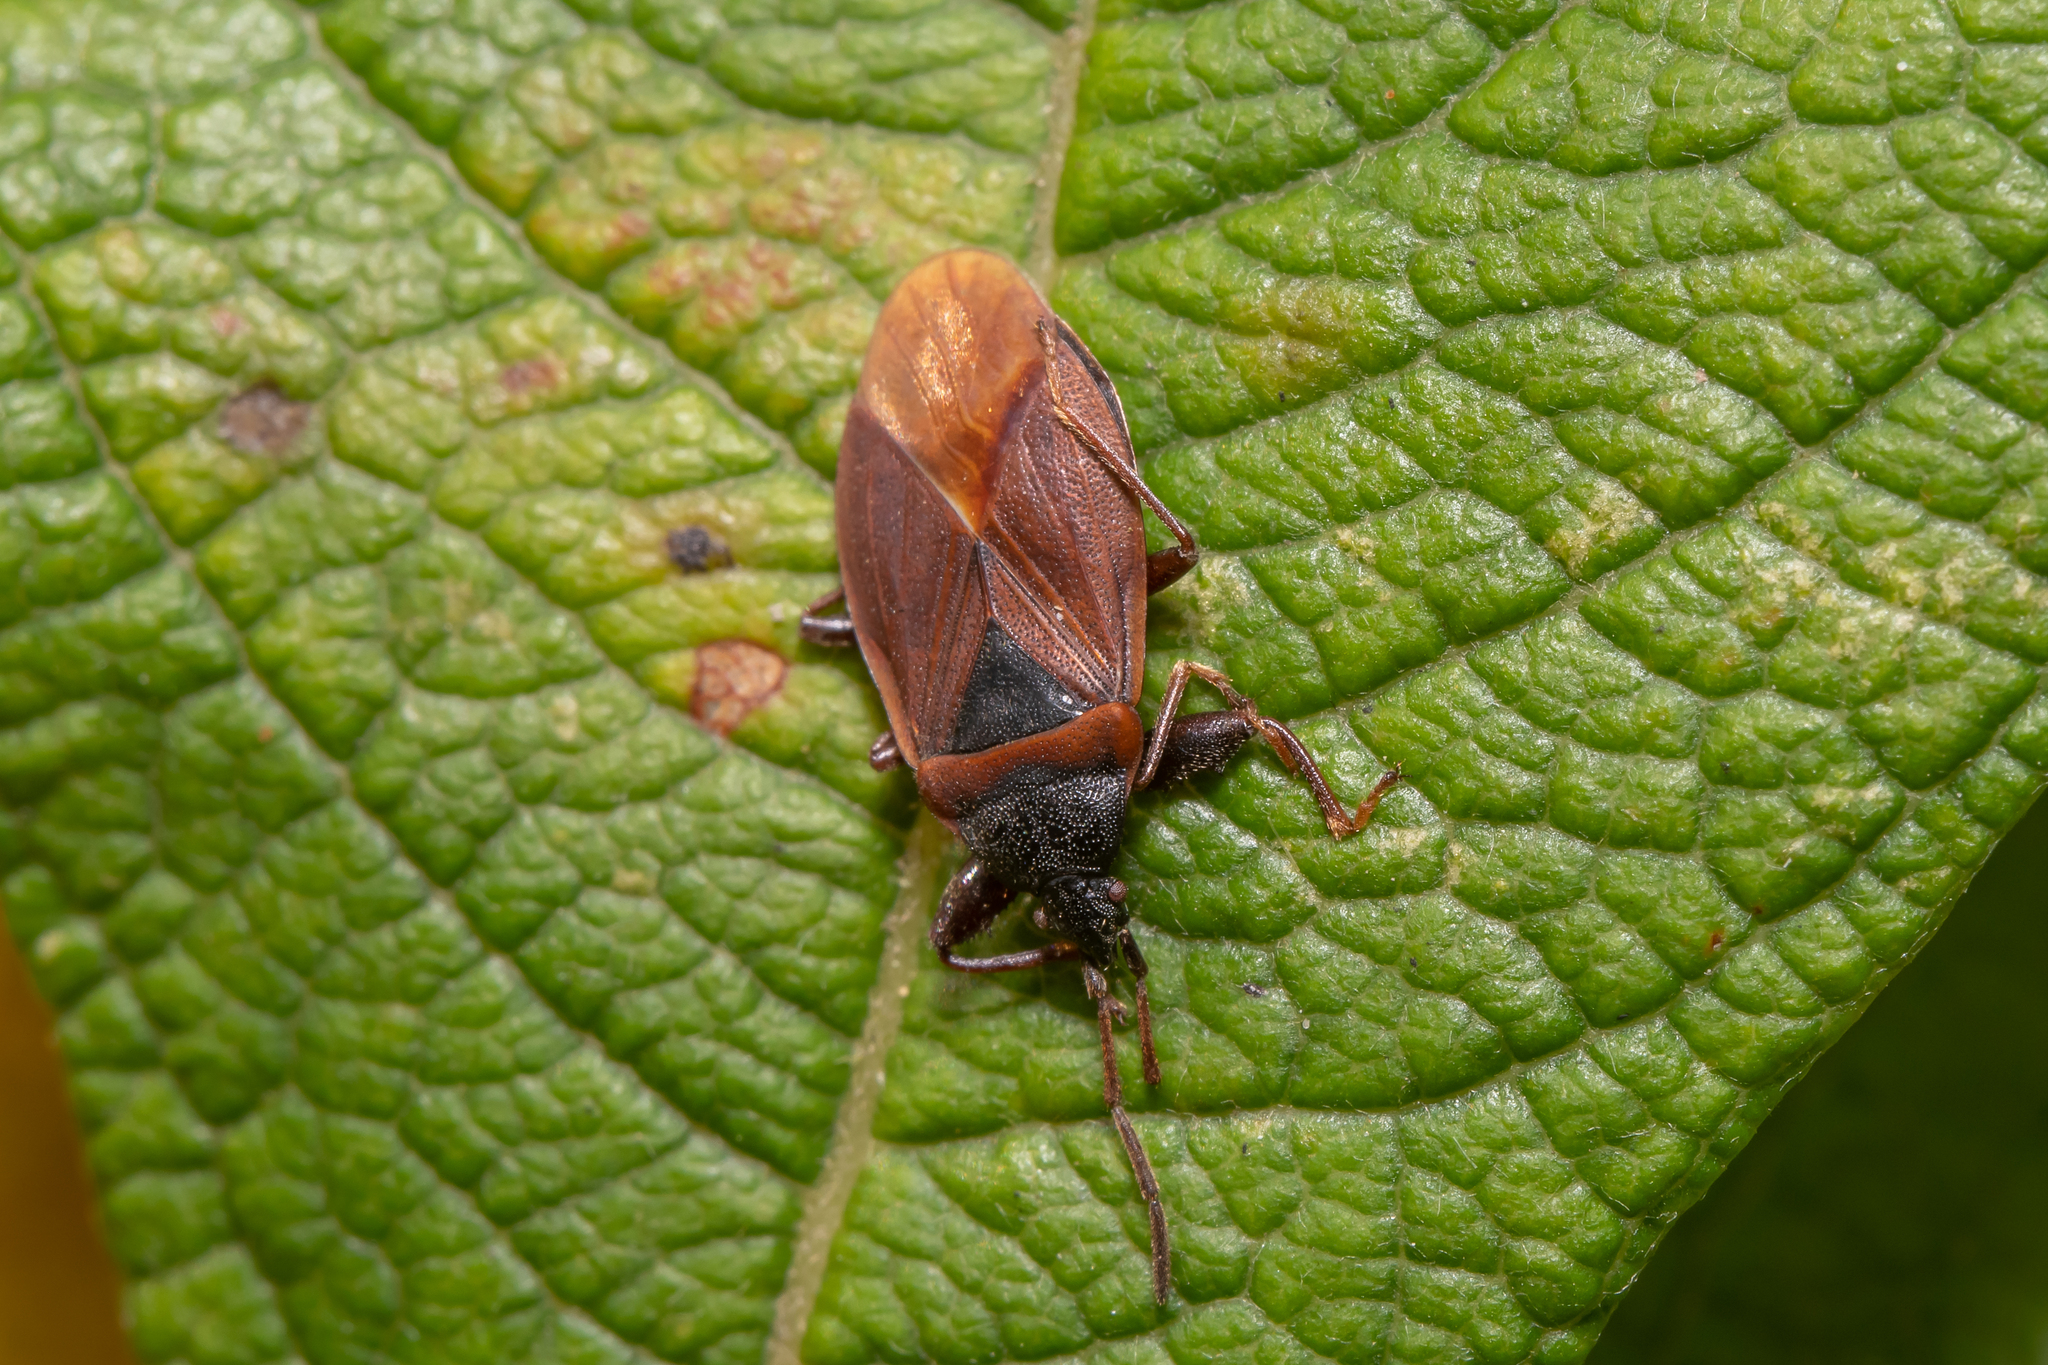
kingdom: Animalia
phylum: Arthropoda
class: Insecta
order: Hemiptera
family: Rhyparochromidae
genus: Gastrodes
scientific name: Gastrodes grossipes
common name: Pine cone bug
